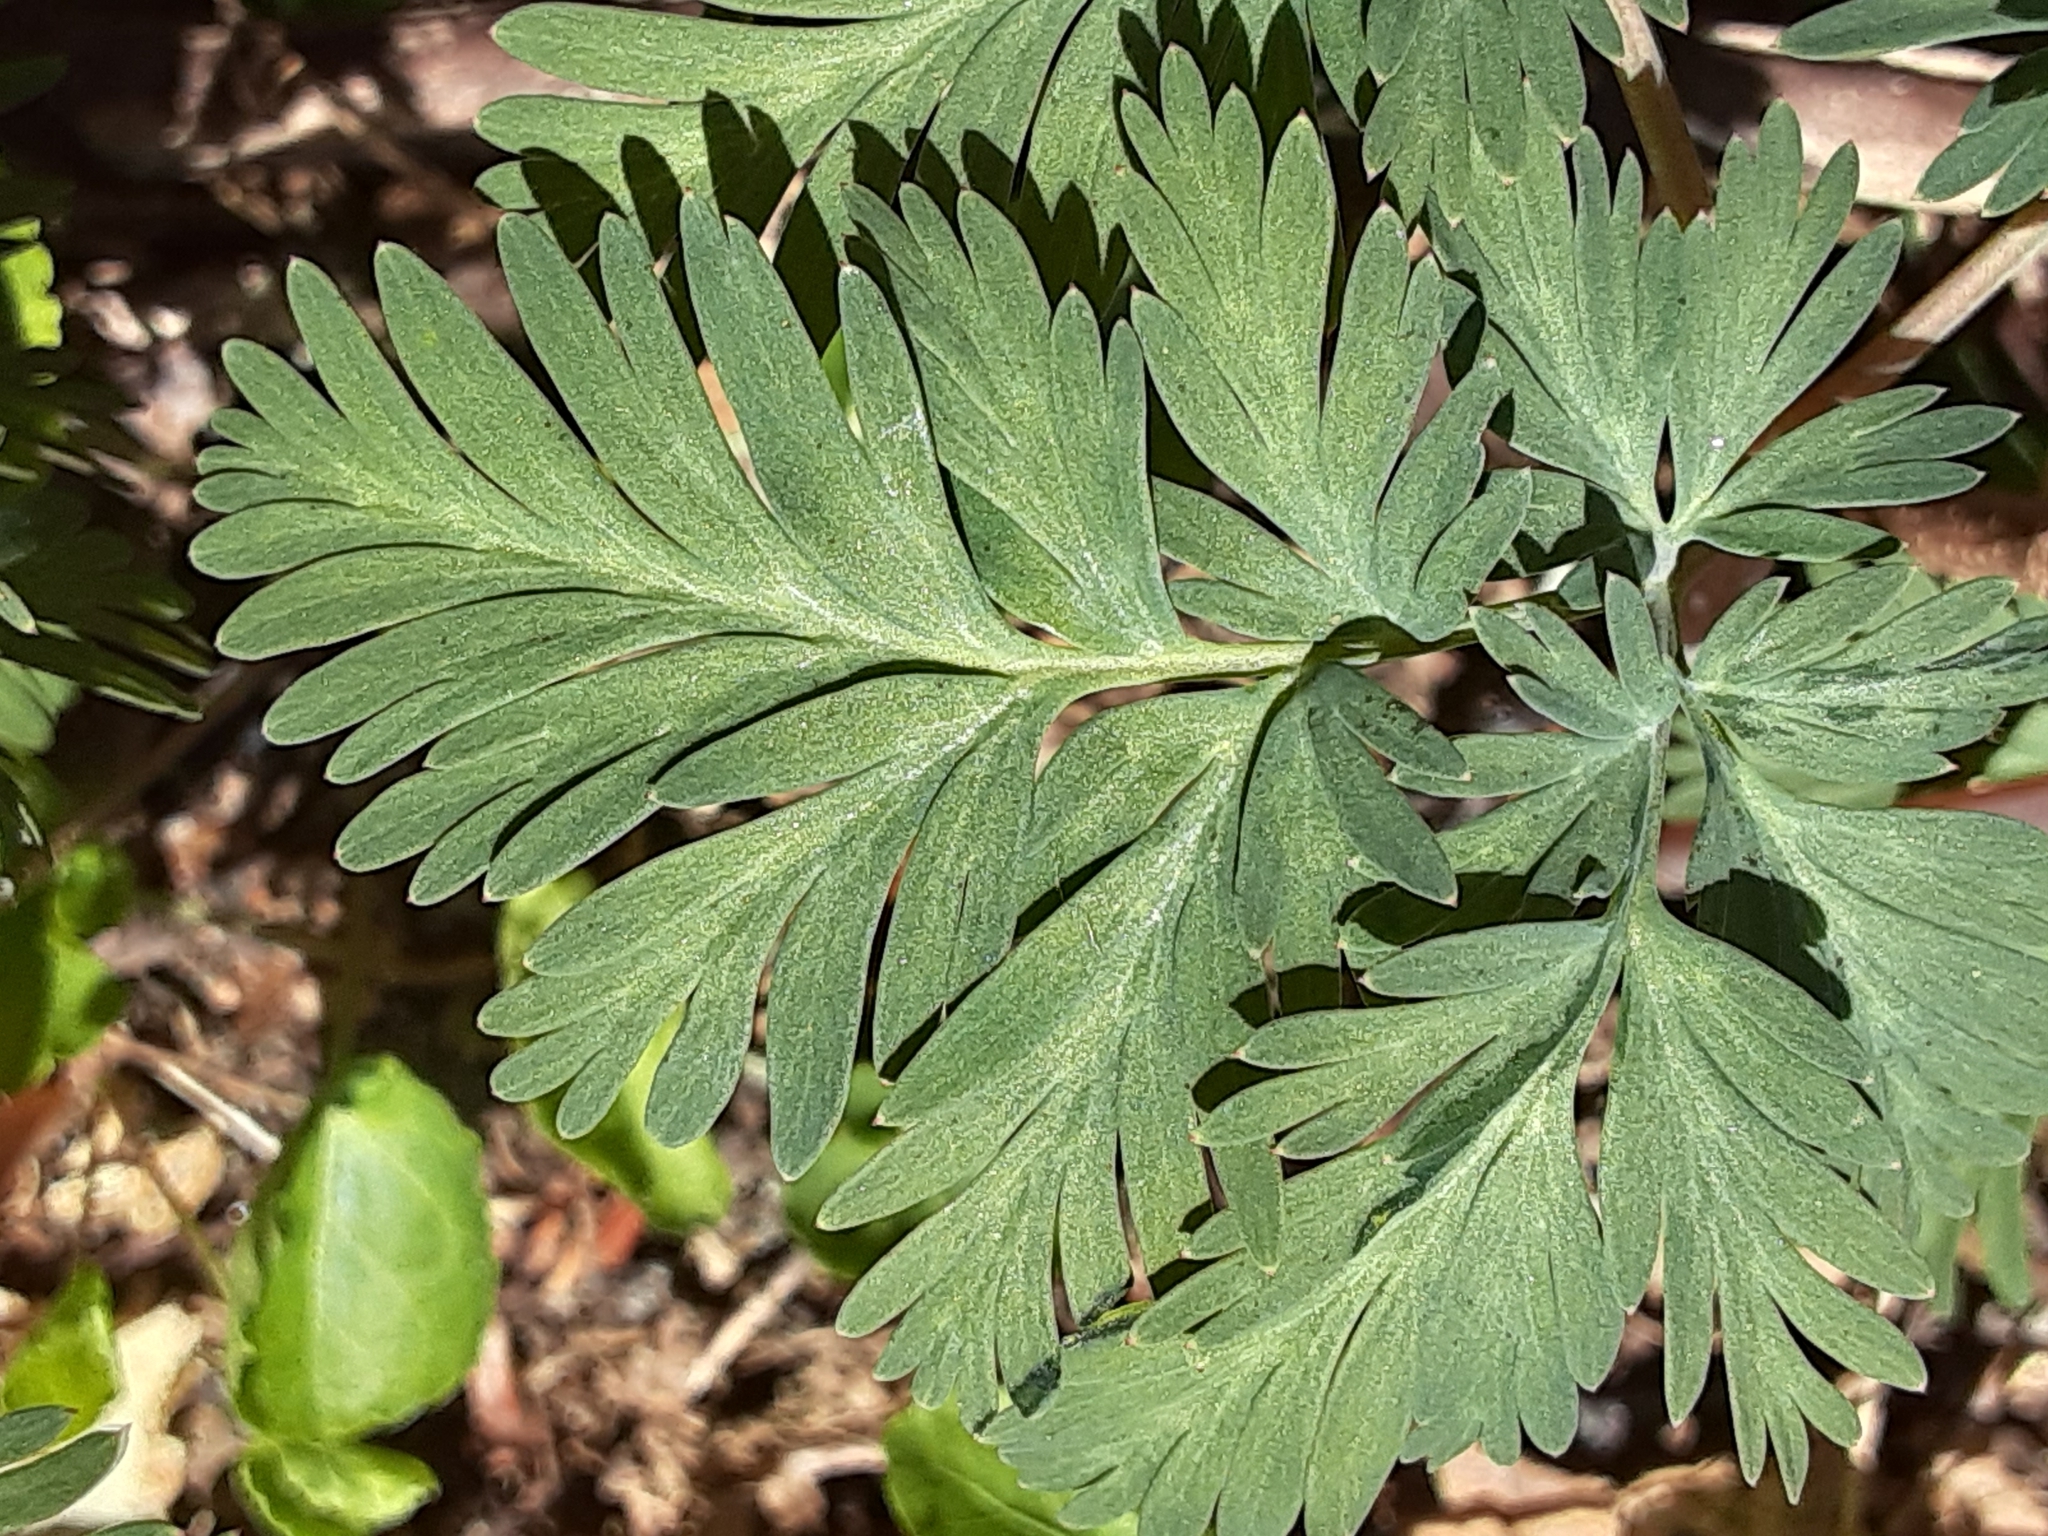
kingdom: Plantae
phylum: Tracheophyta
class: Magnoliopsida
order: Ranunculales
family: Papaveraceae
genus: Dicentra
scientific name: Dicentra canadensis
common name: Squirrel-corn
